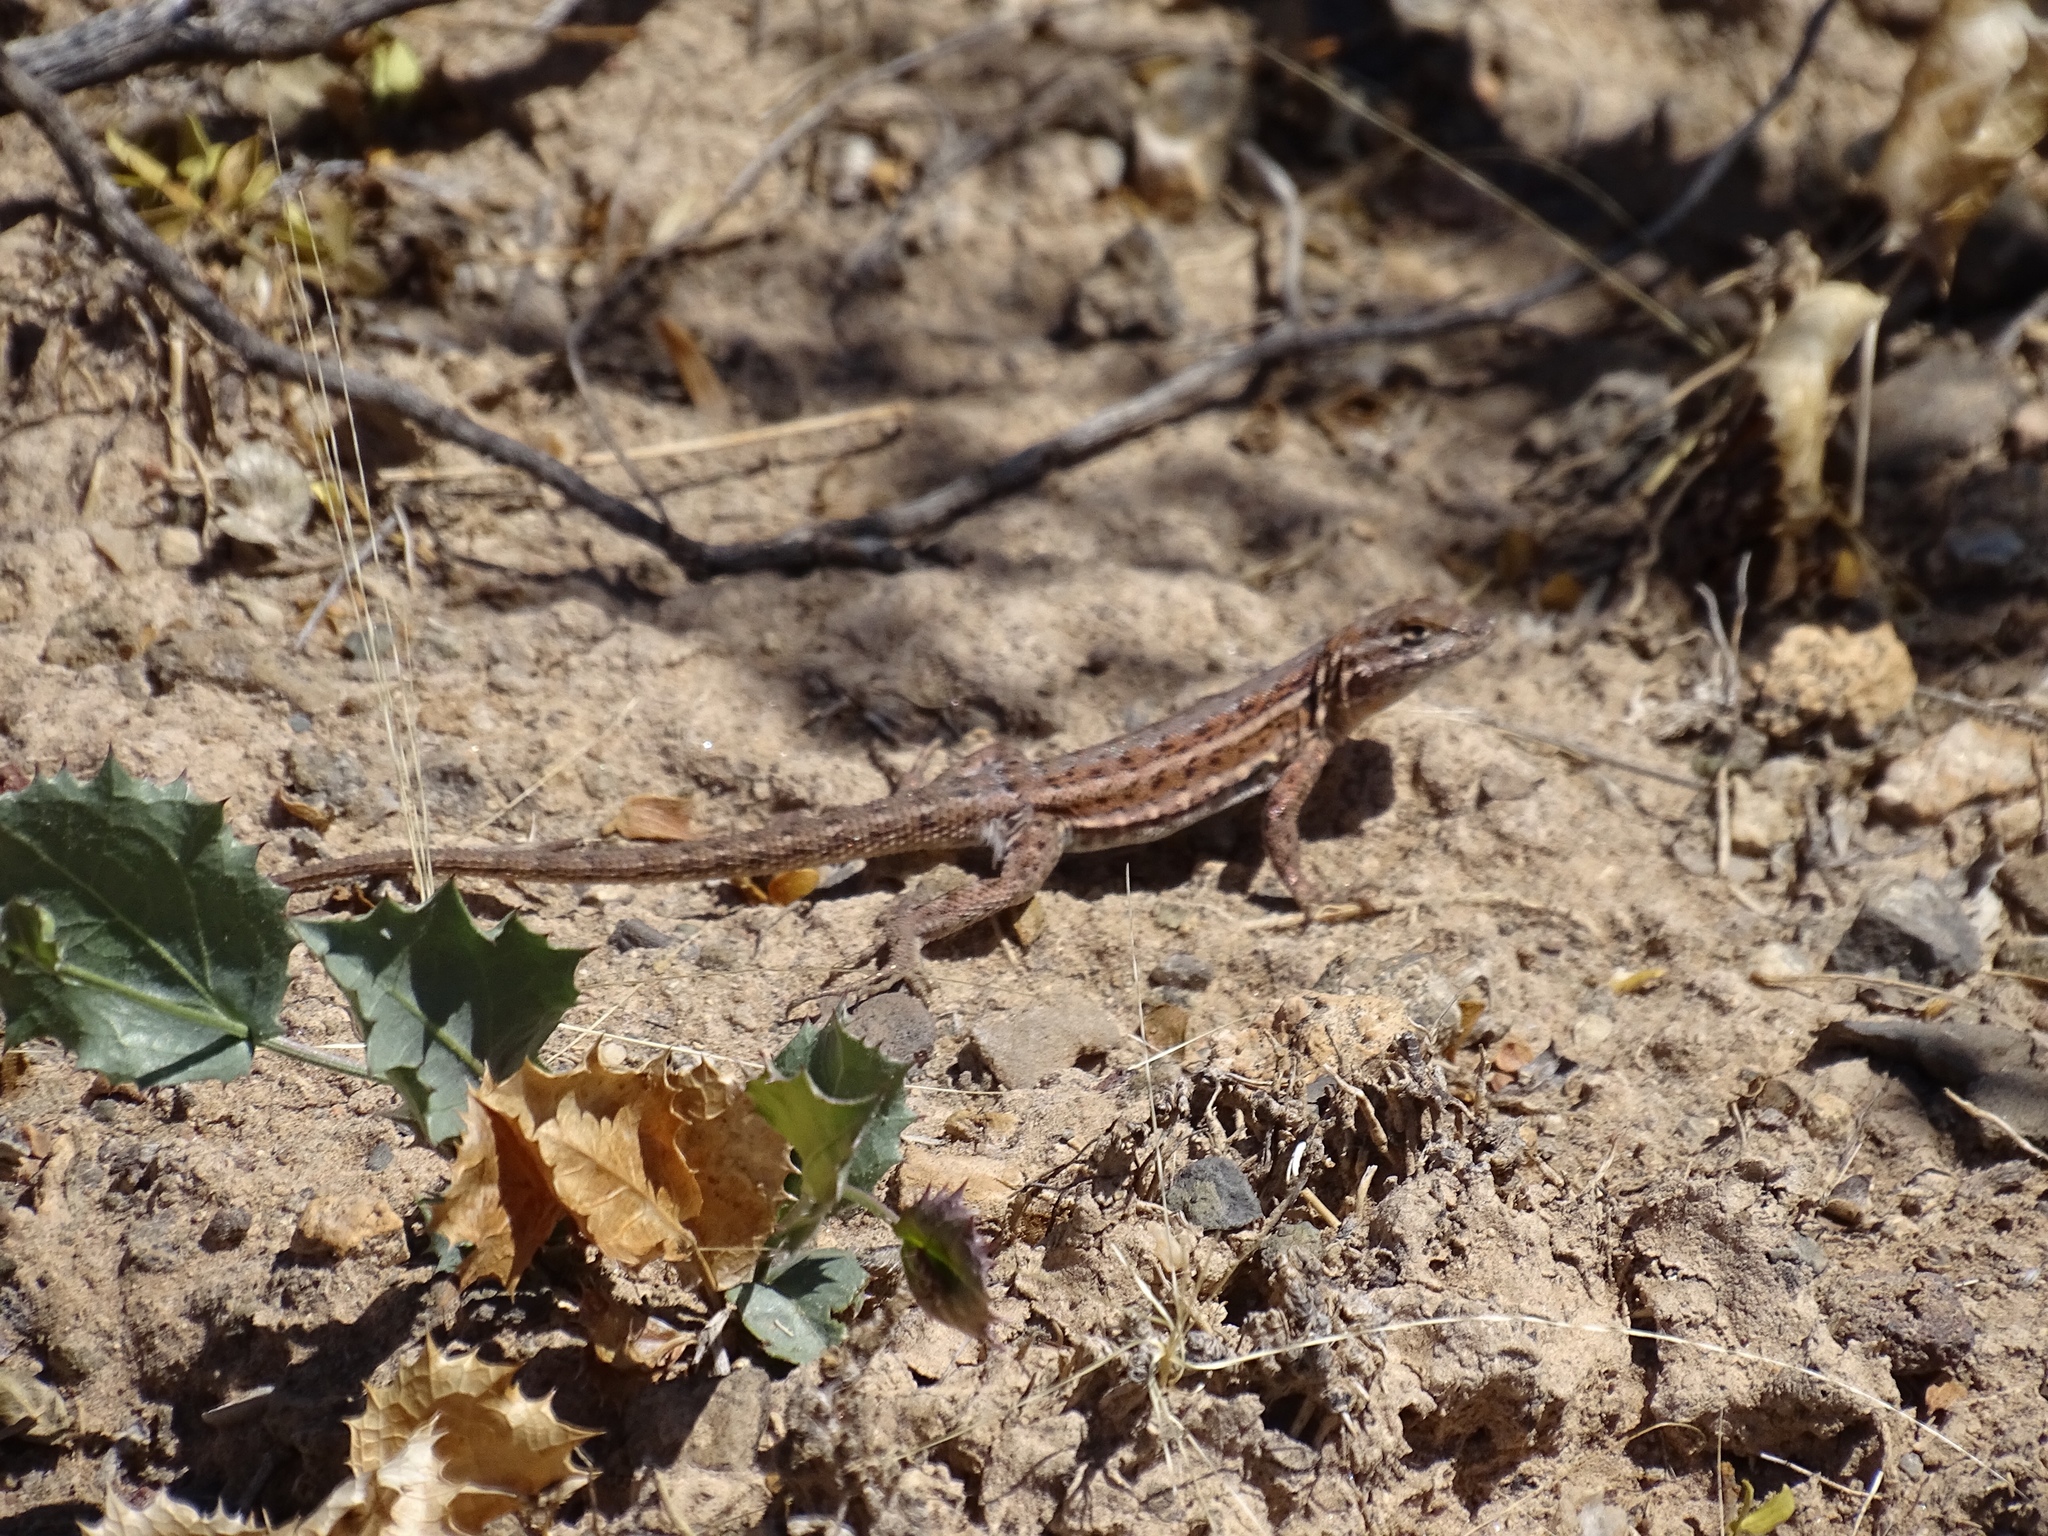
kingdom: Animalia
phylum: Chordata
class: Squamata
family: Phrynosomatidae
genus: Uta
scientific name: Uta stansburiana
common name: Side-blotched lizard
